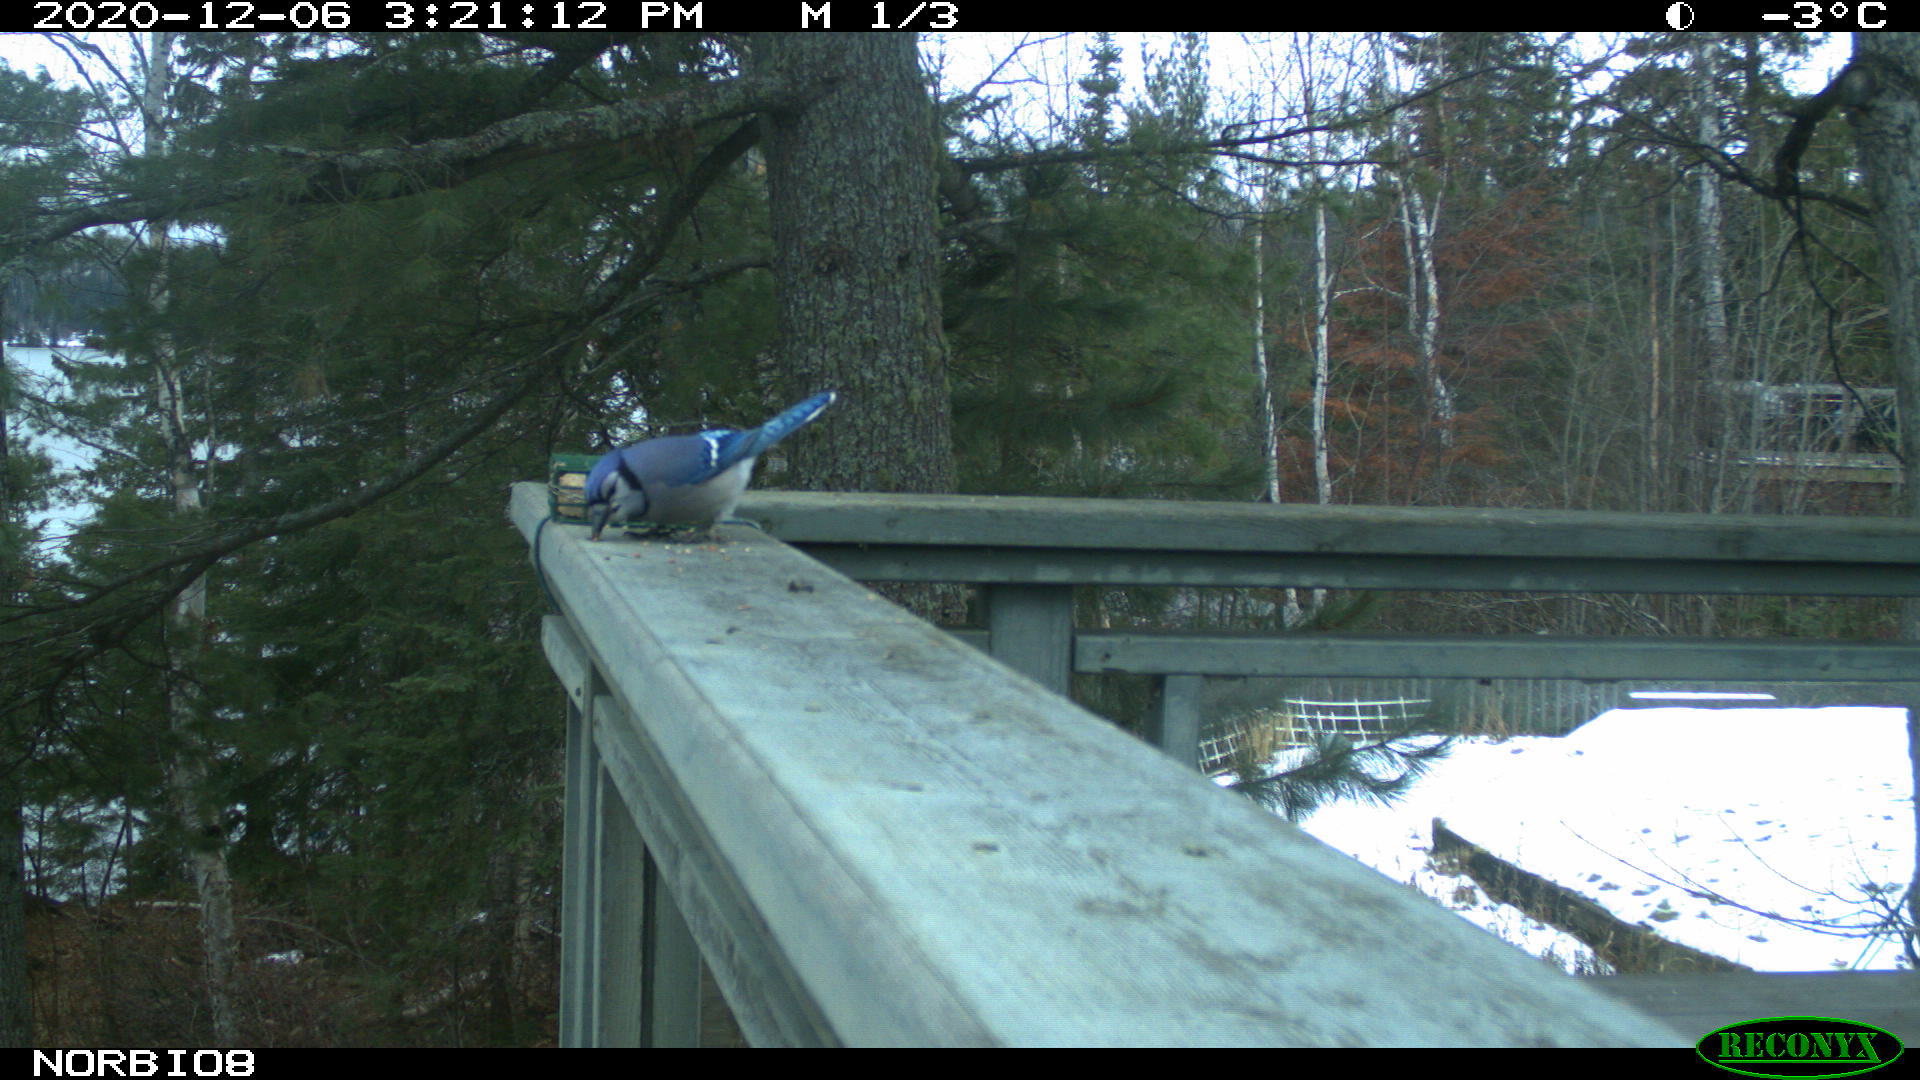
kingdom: Animalia
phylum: Chordata
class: Aves
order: Passeriformes
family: Corvidae
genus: Cyanocitta
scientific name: Cyanocitta cristata
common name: Blue jay
